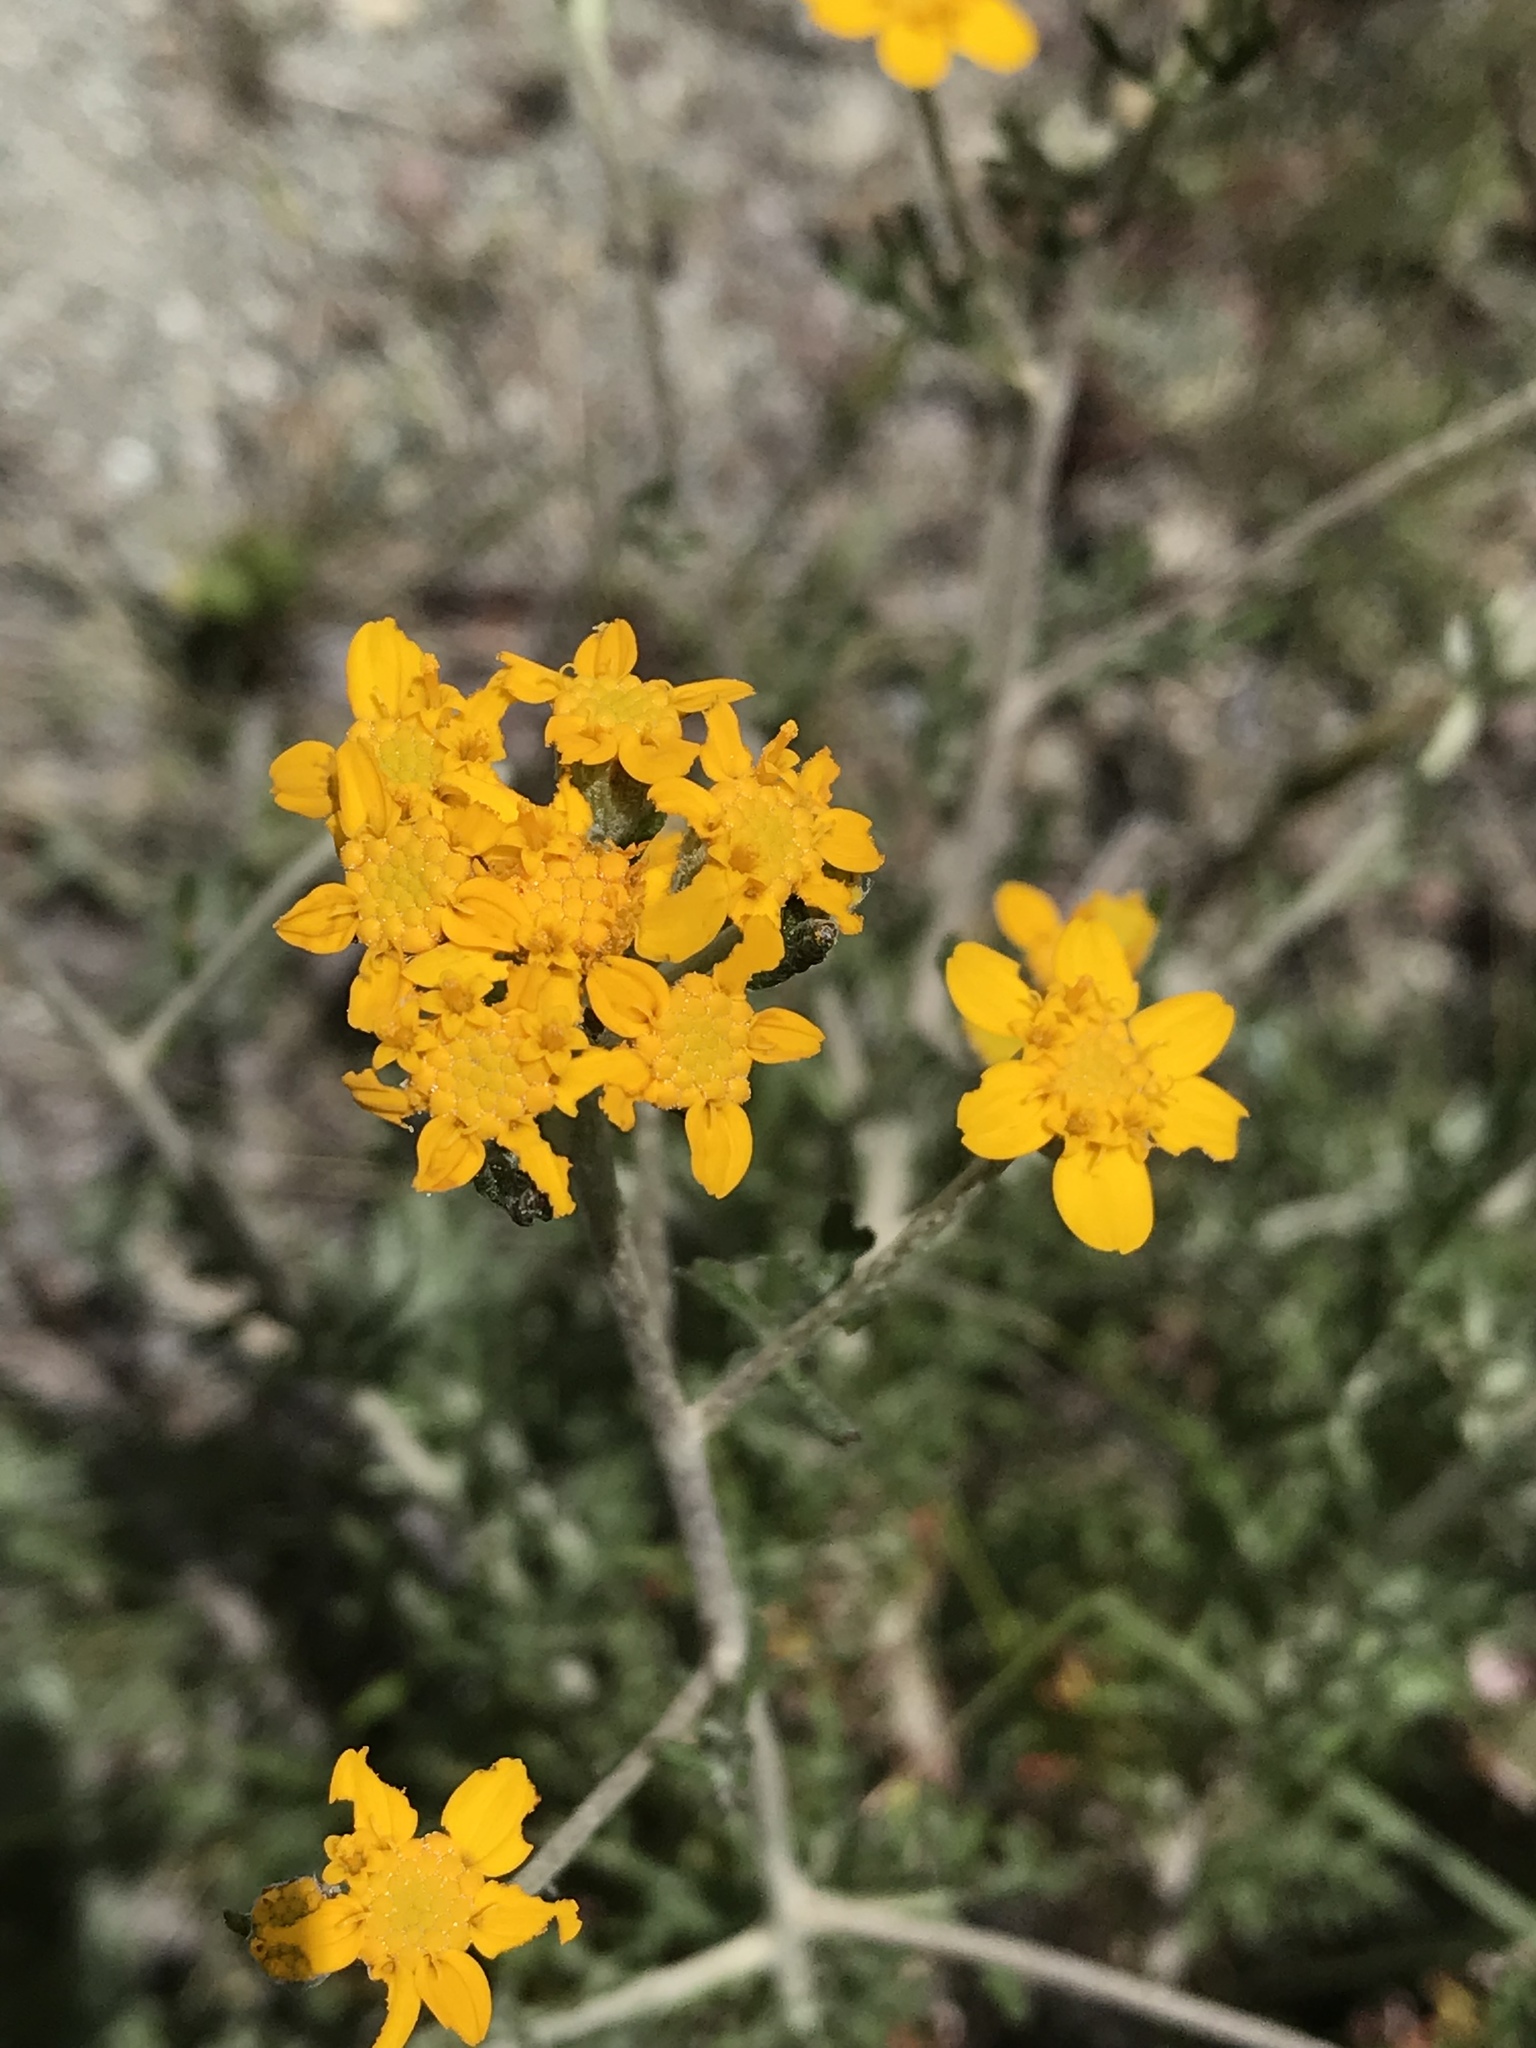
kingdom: Plantae
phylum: Tracheophyta
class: Magnoliopsida
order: Asterales
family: Asteraceae
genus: Eriophyllum
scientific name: Eriophyllum confertiflorum
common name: Golden-yarrow
